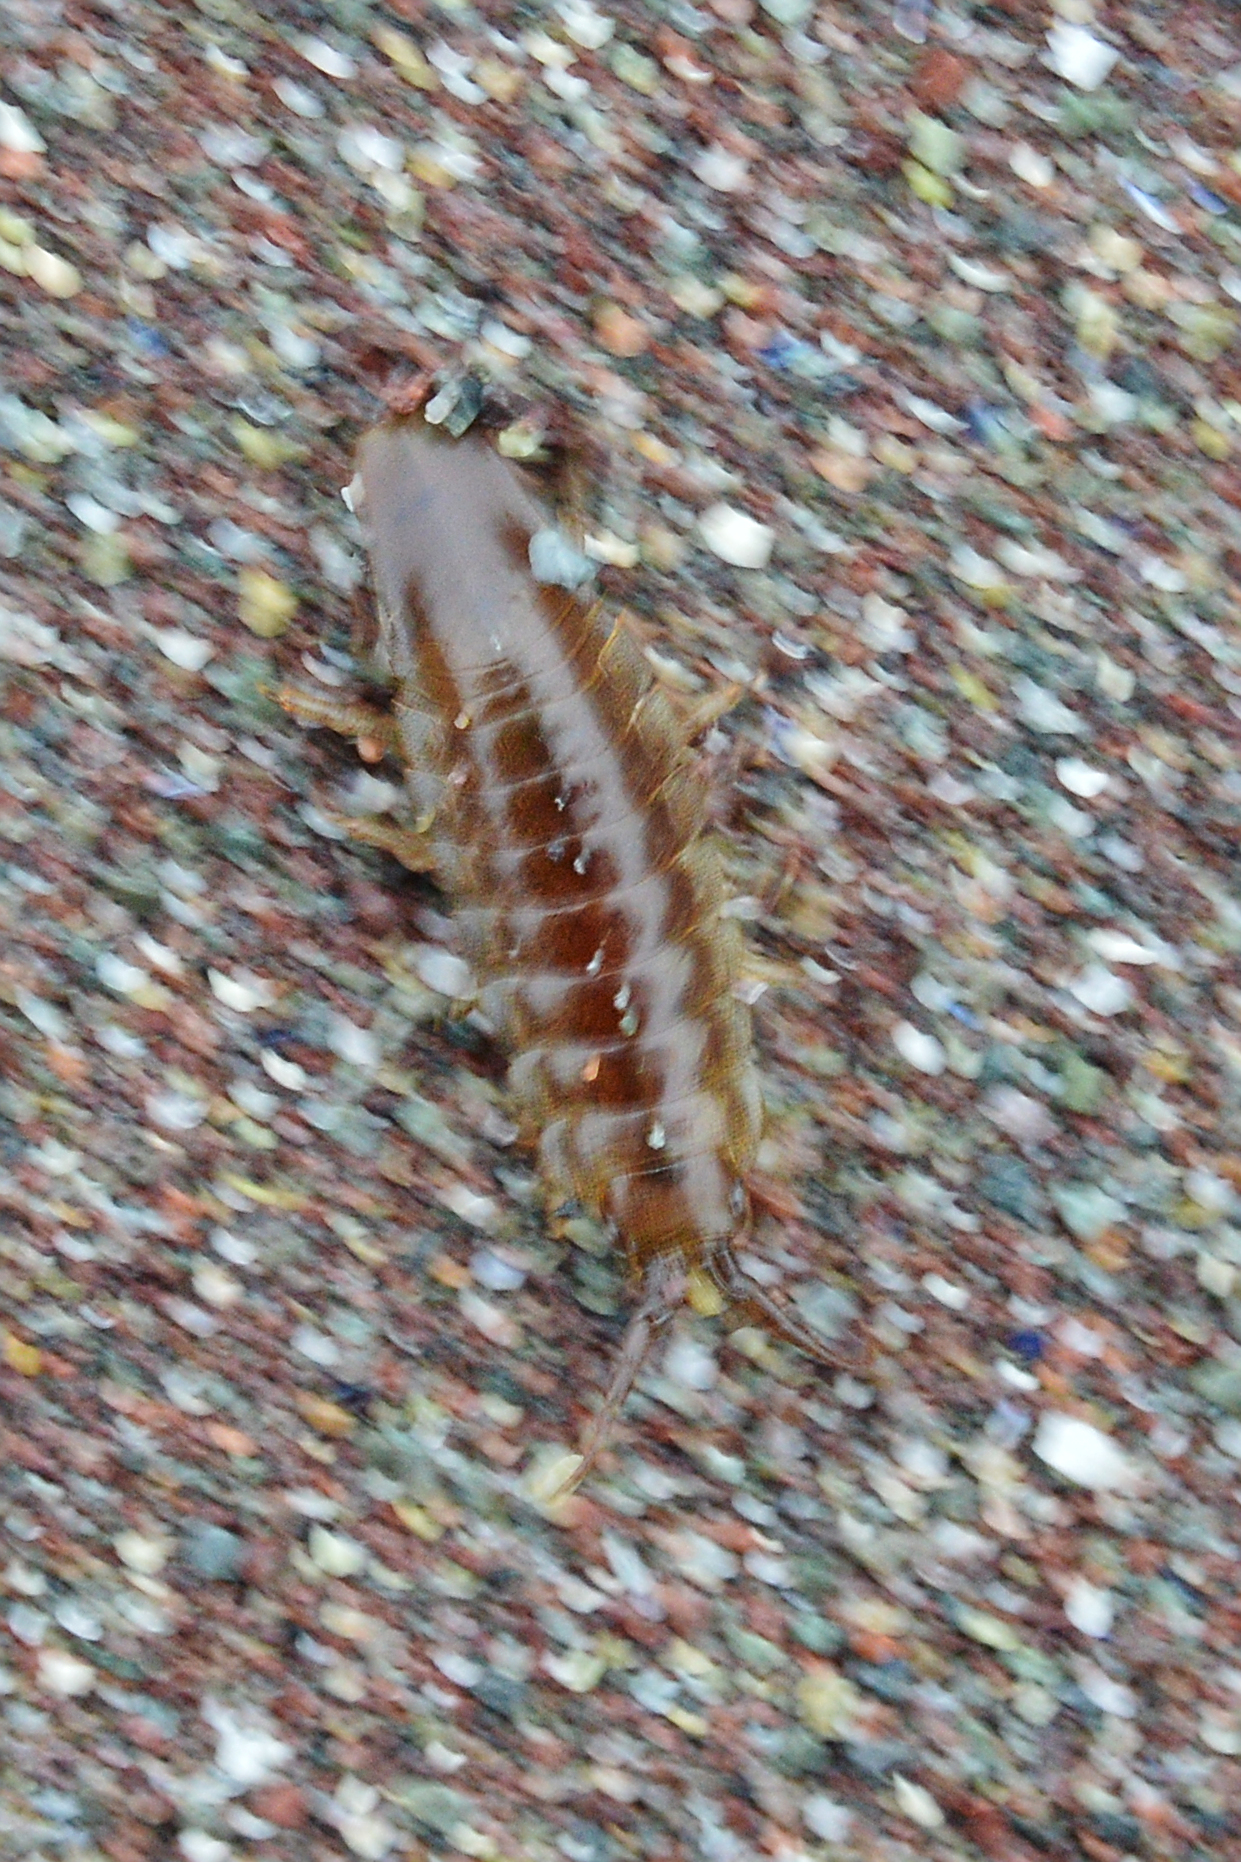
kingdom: Animalia
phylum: Arthropoda
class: Malacostraca
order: Isopoda
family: Idoteidae
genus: Idotea
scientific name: Idotea balthica
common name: Baltic isopod
